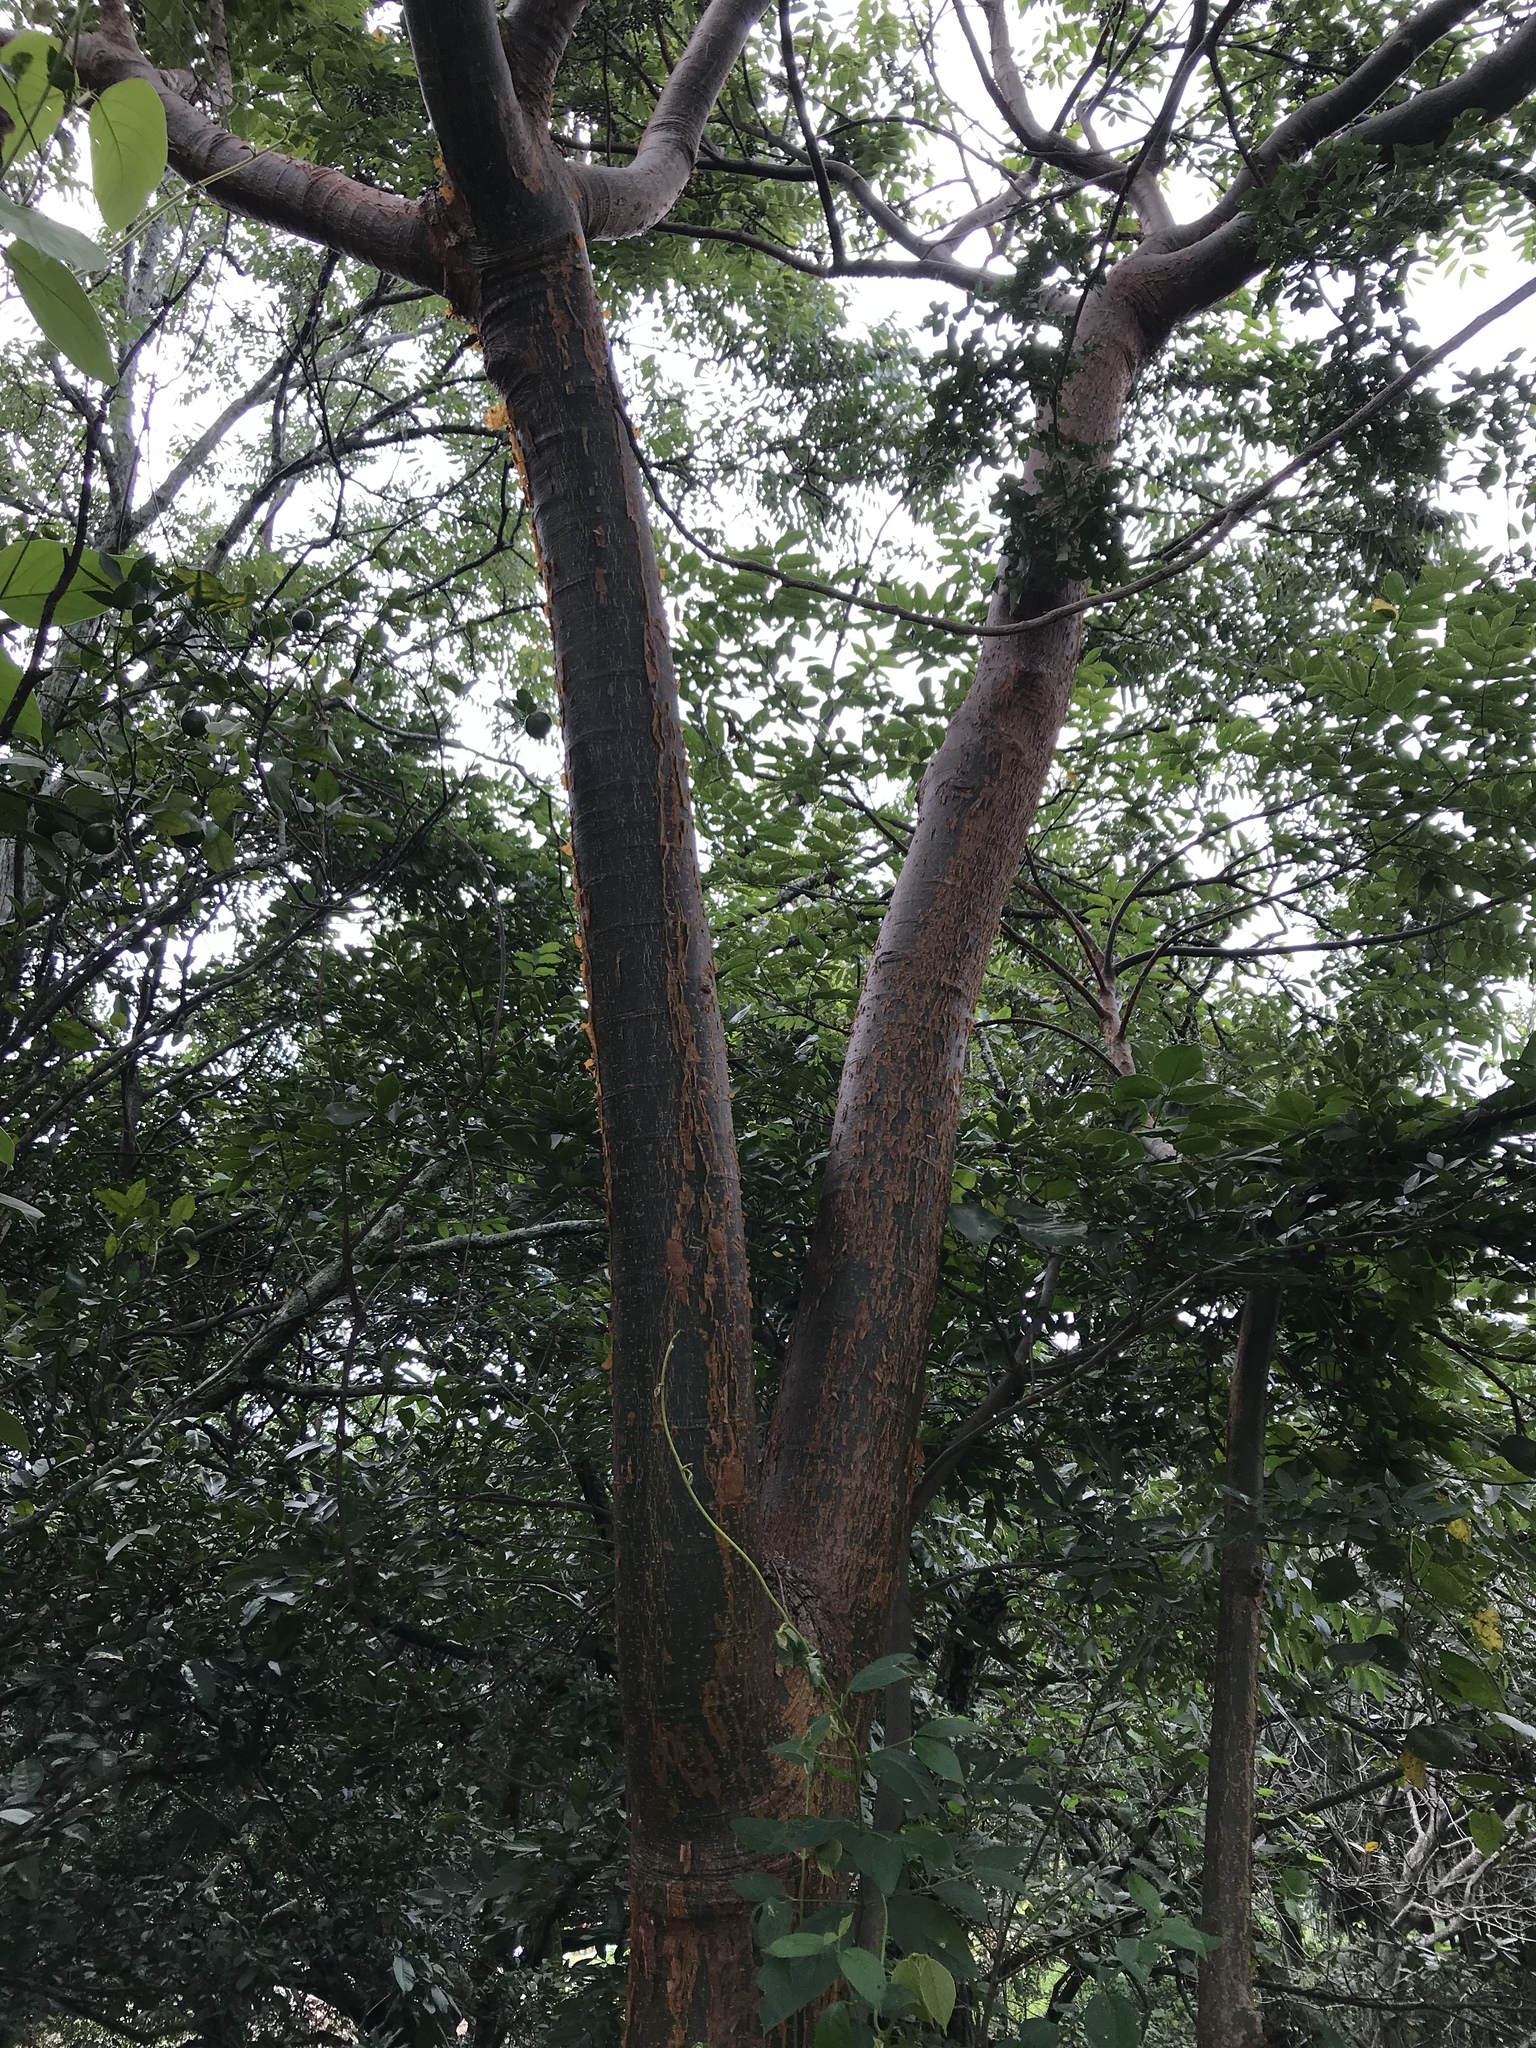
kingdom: Plantae
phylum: Tracheophyta
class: Magnoliopsida
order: Sapindales
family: Burseraceae
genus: Bursera
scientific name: Bursera simaruba
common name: Turpentine tree
